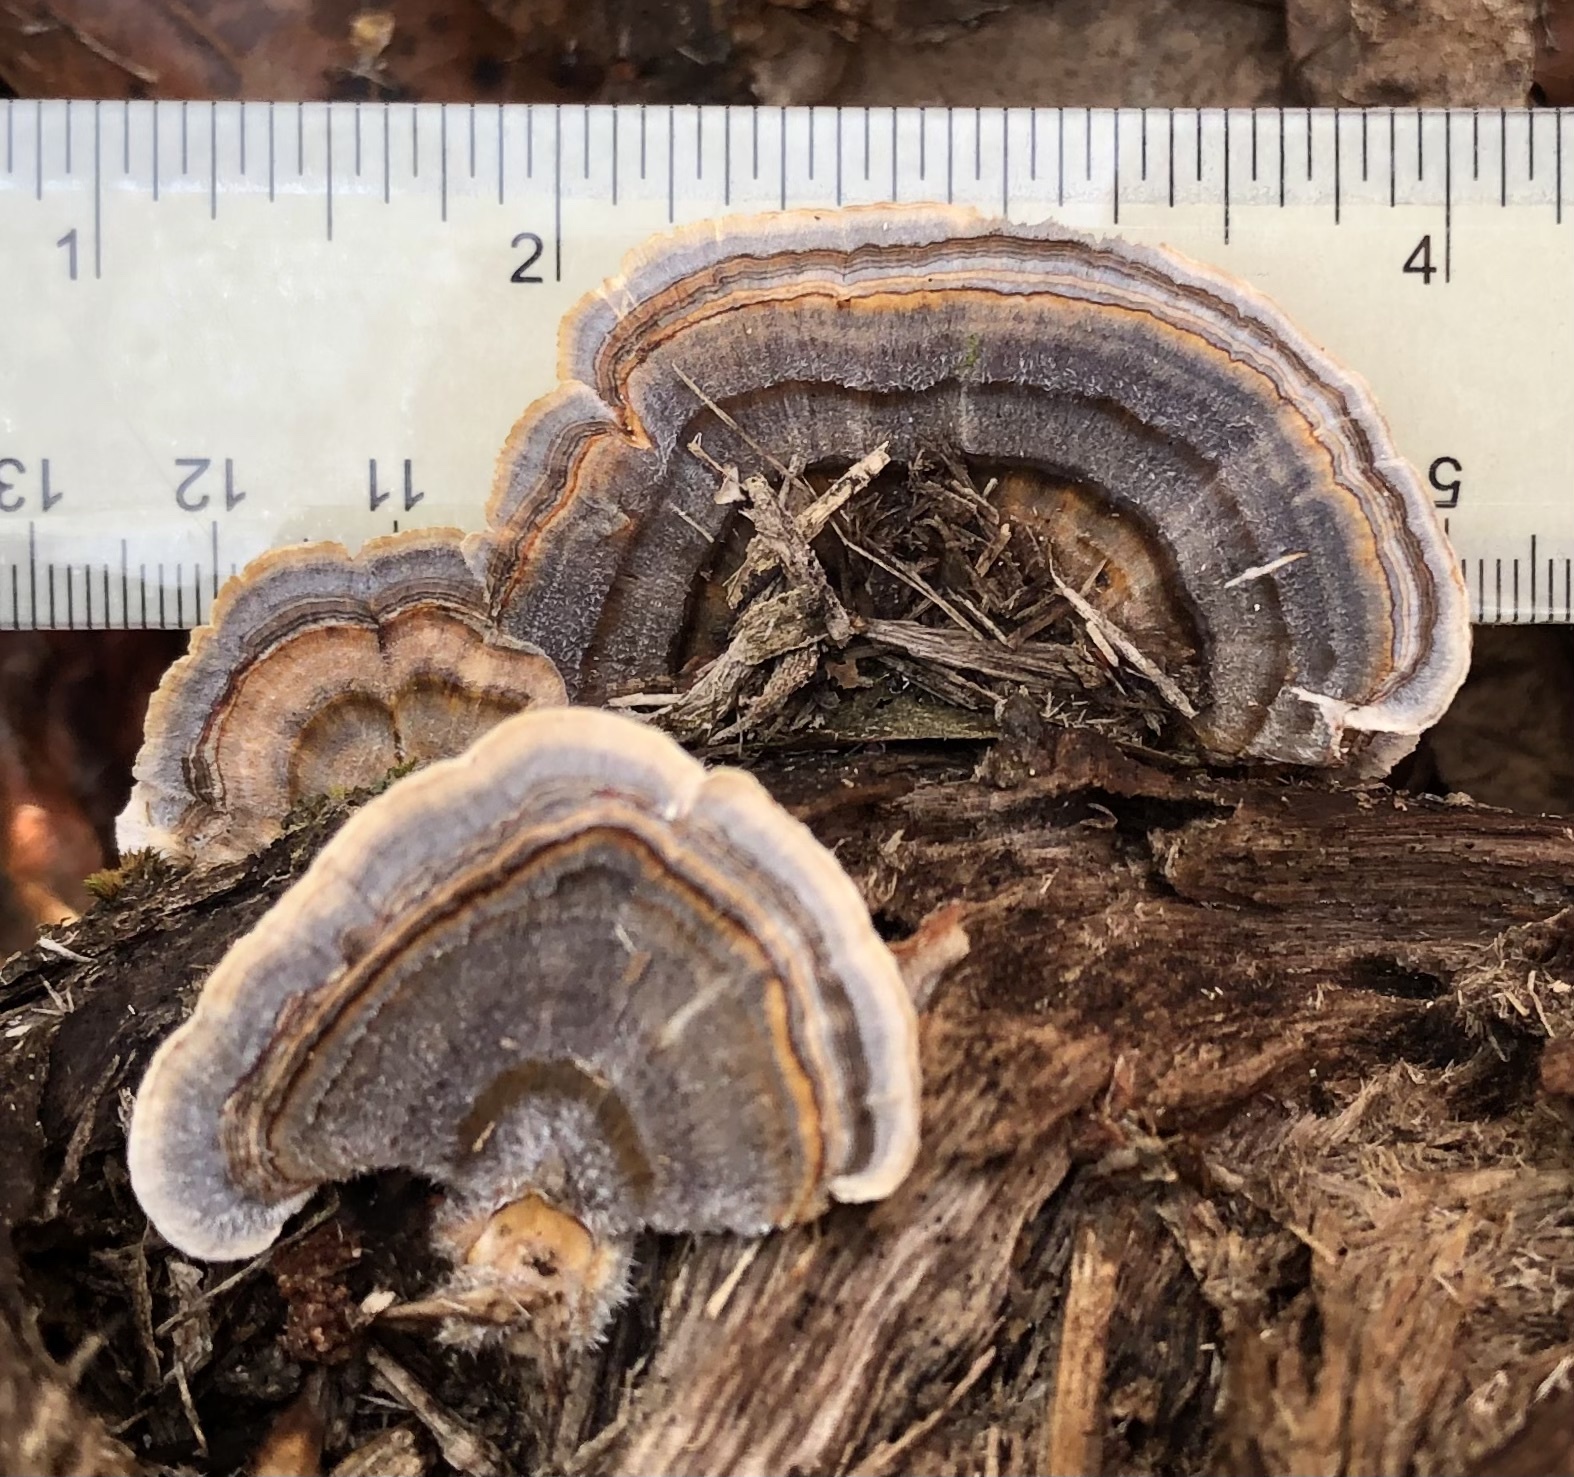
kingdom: Fungi
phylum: Basidiomycota
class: Agaricomycetes
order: Polyporales
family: Polyporaceae
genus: Trametes
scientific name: Trametes versicolor
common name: Turkeytail
